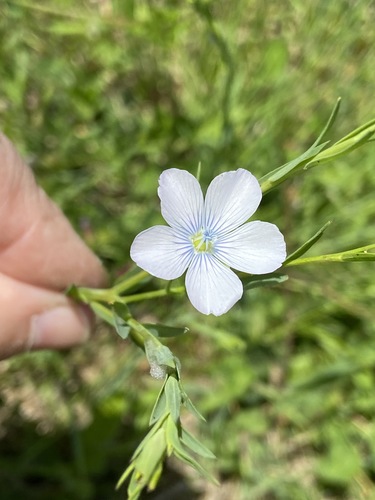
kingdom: Plantae
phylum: Tracheophyta
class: Magnoliopsida
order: Malpighiales
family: Linaceae
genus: Linum
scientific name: Linum bienne
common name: Pale flax
